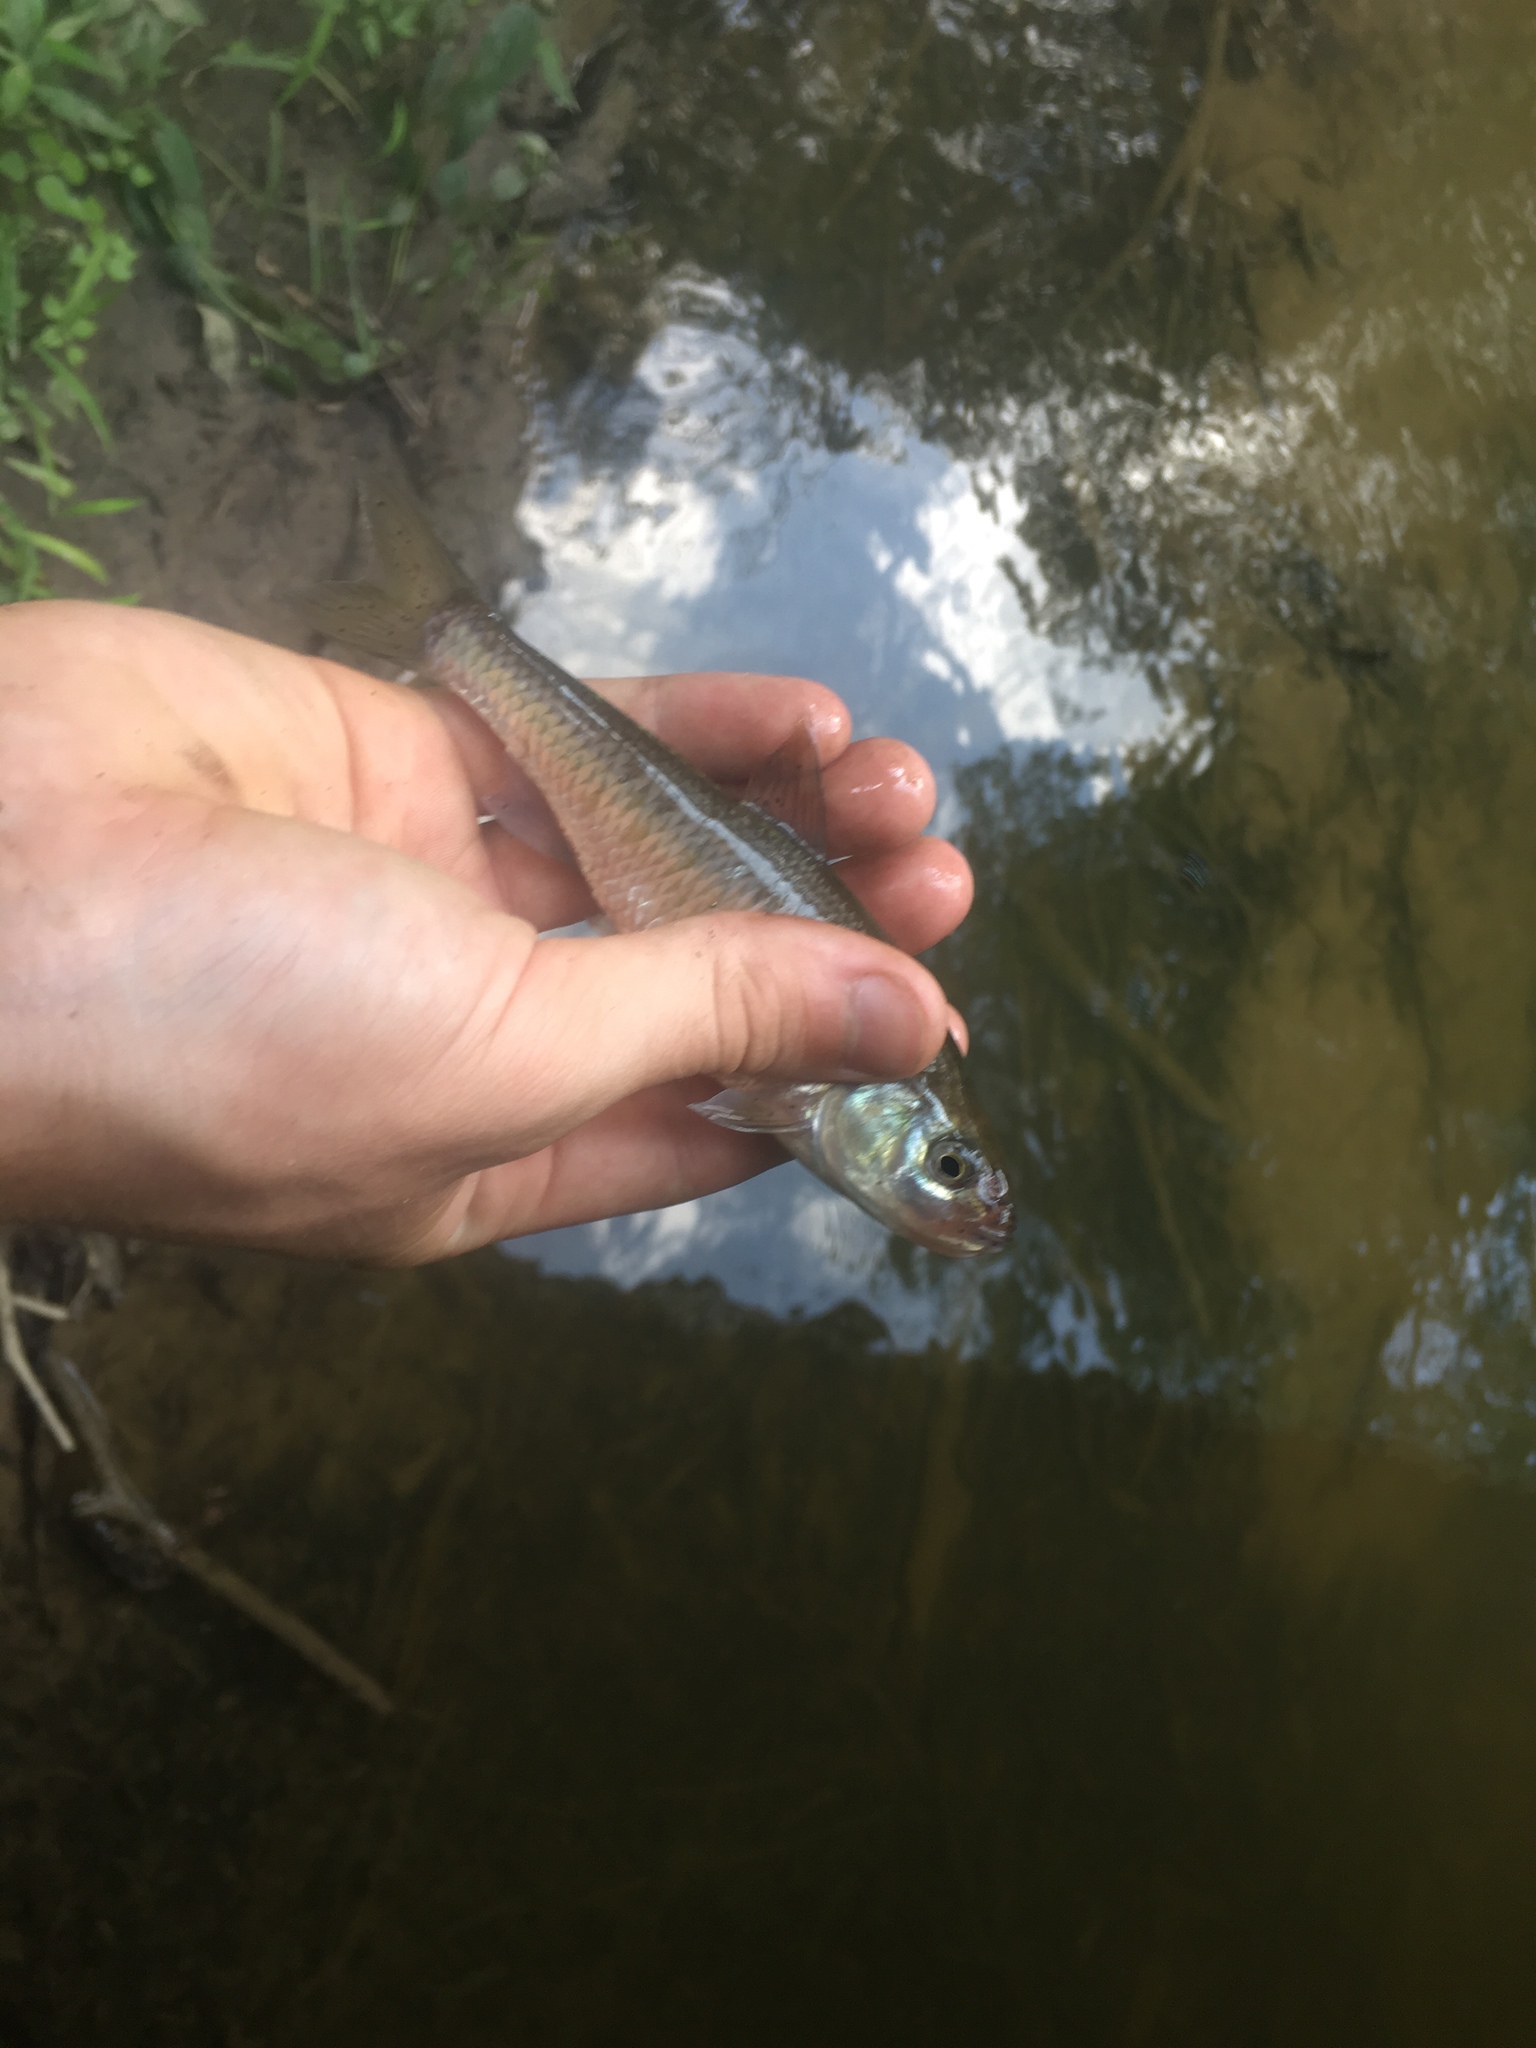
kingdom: Animalia
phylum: Chordata
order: Cypriniformes
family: Cyprinidae
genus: Luxilus
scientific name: Luxilus cornutus
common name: Common shiner
